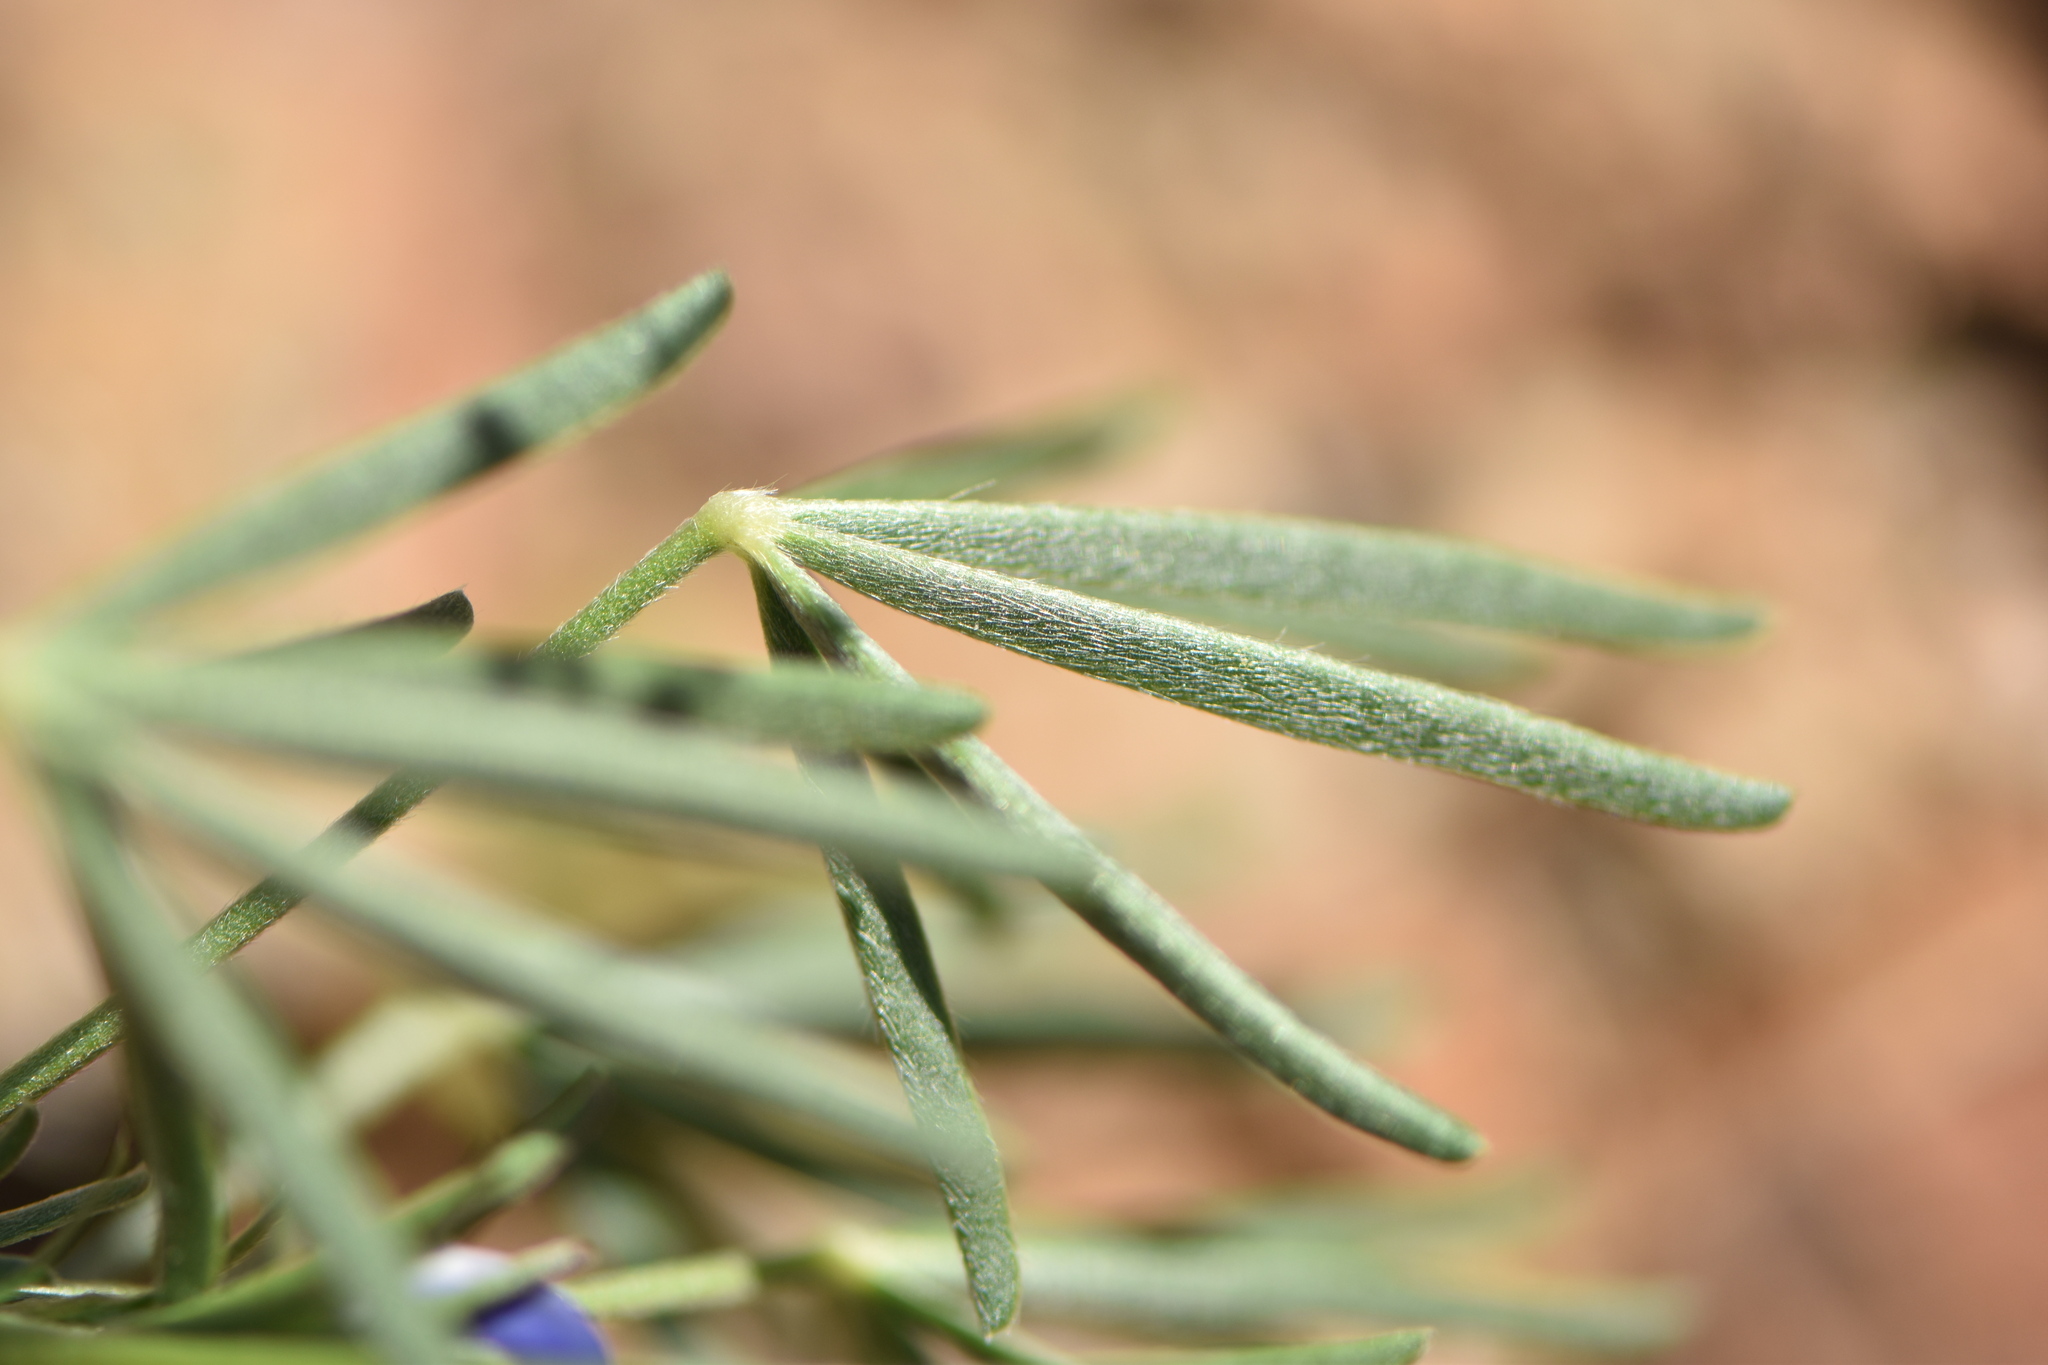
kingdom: Plantae
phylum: Tracheophyta
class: Magnoliopsida
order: Fabales
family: Fabaceae
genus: Lupinus
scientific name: Lupinus angustifolius
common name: Narrow-leaved lupin
